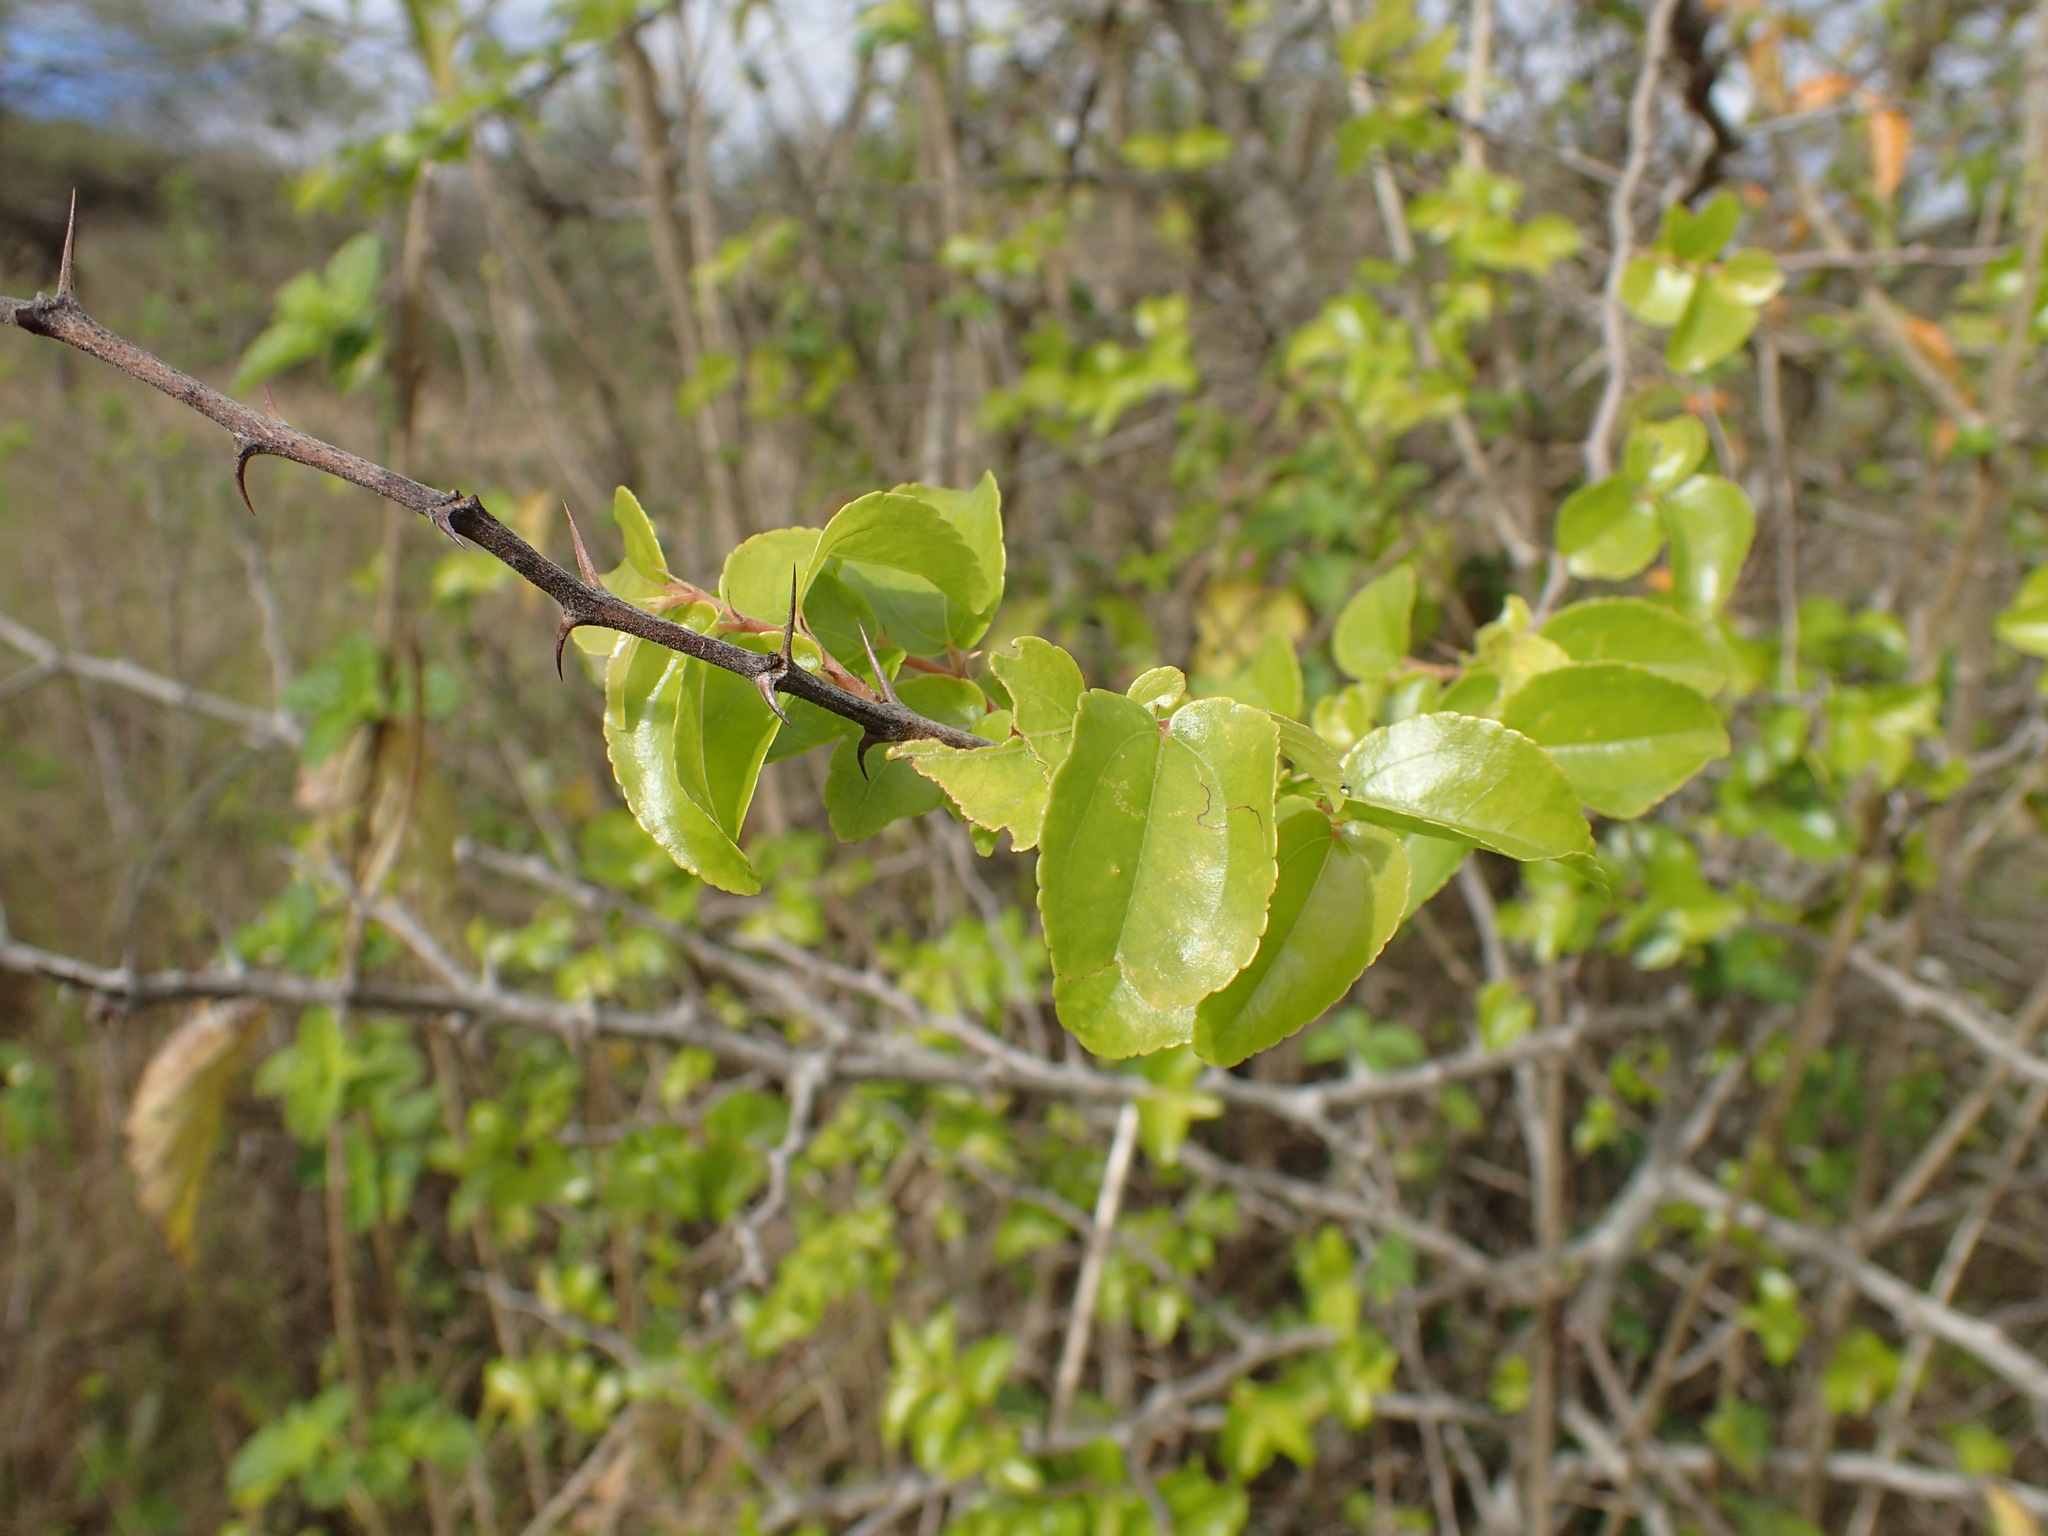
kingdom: Plantae
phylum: Tracheophyta
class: Magnoliopsida
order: Rosales
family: Rhamnaceae
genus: Ziziphus
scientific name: Ziziphus mucronata
